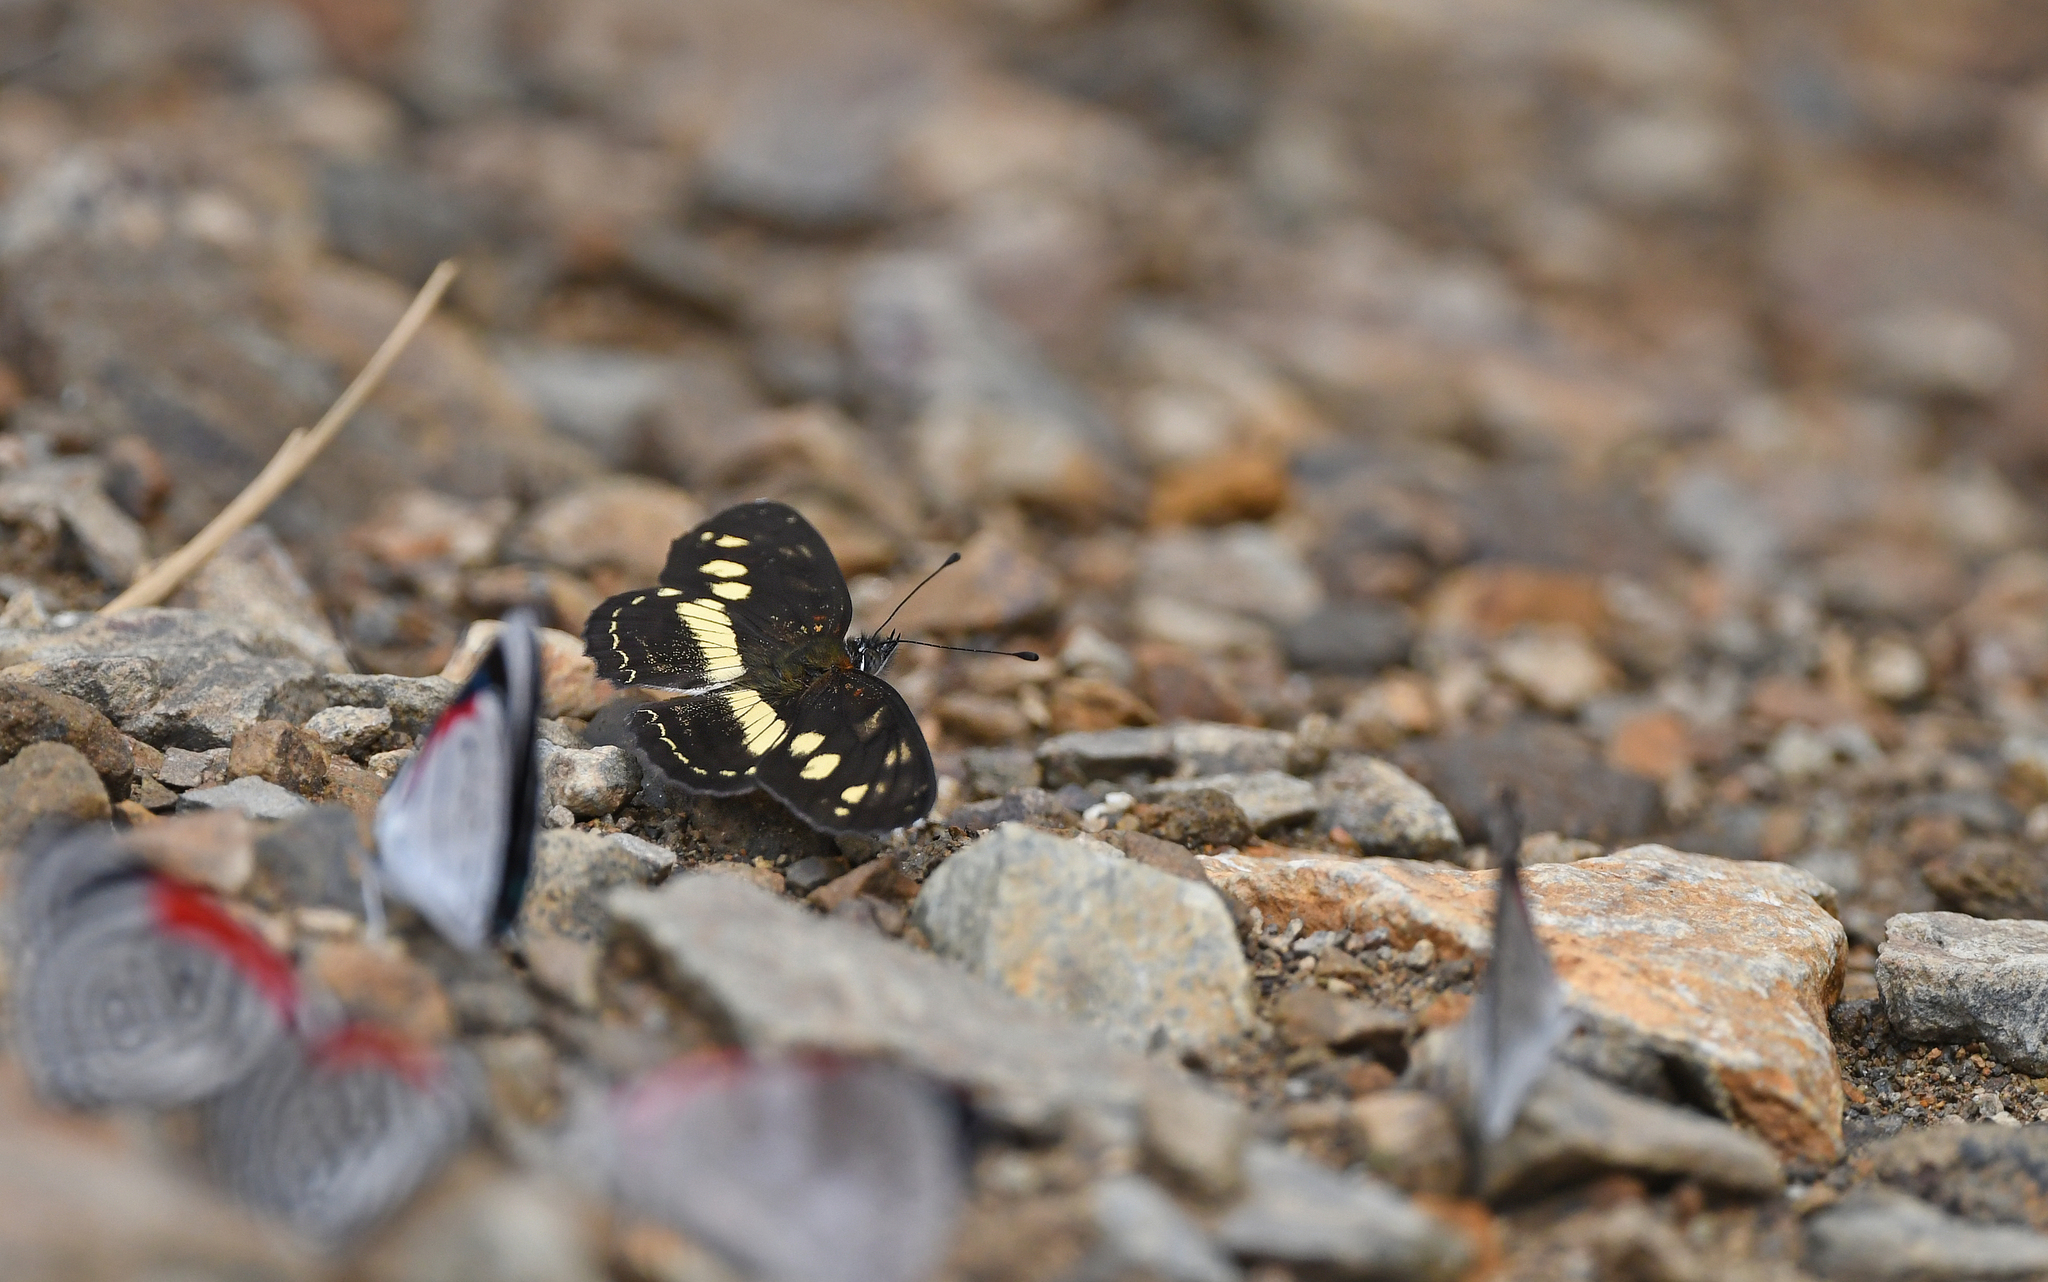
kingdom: Animalia
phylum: Arthropoda
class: Insecta
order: Lepidoptera
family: Nymphalidae
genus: Eresia
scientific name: Eresia polina
